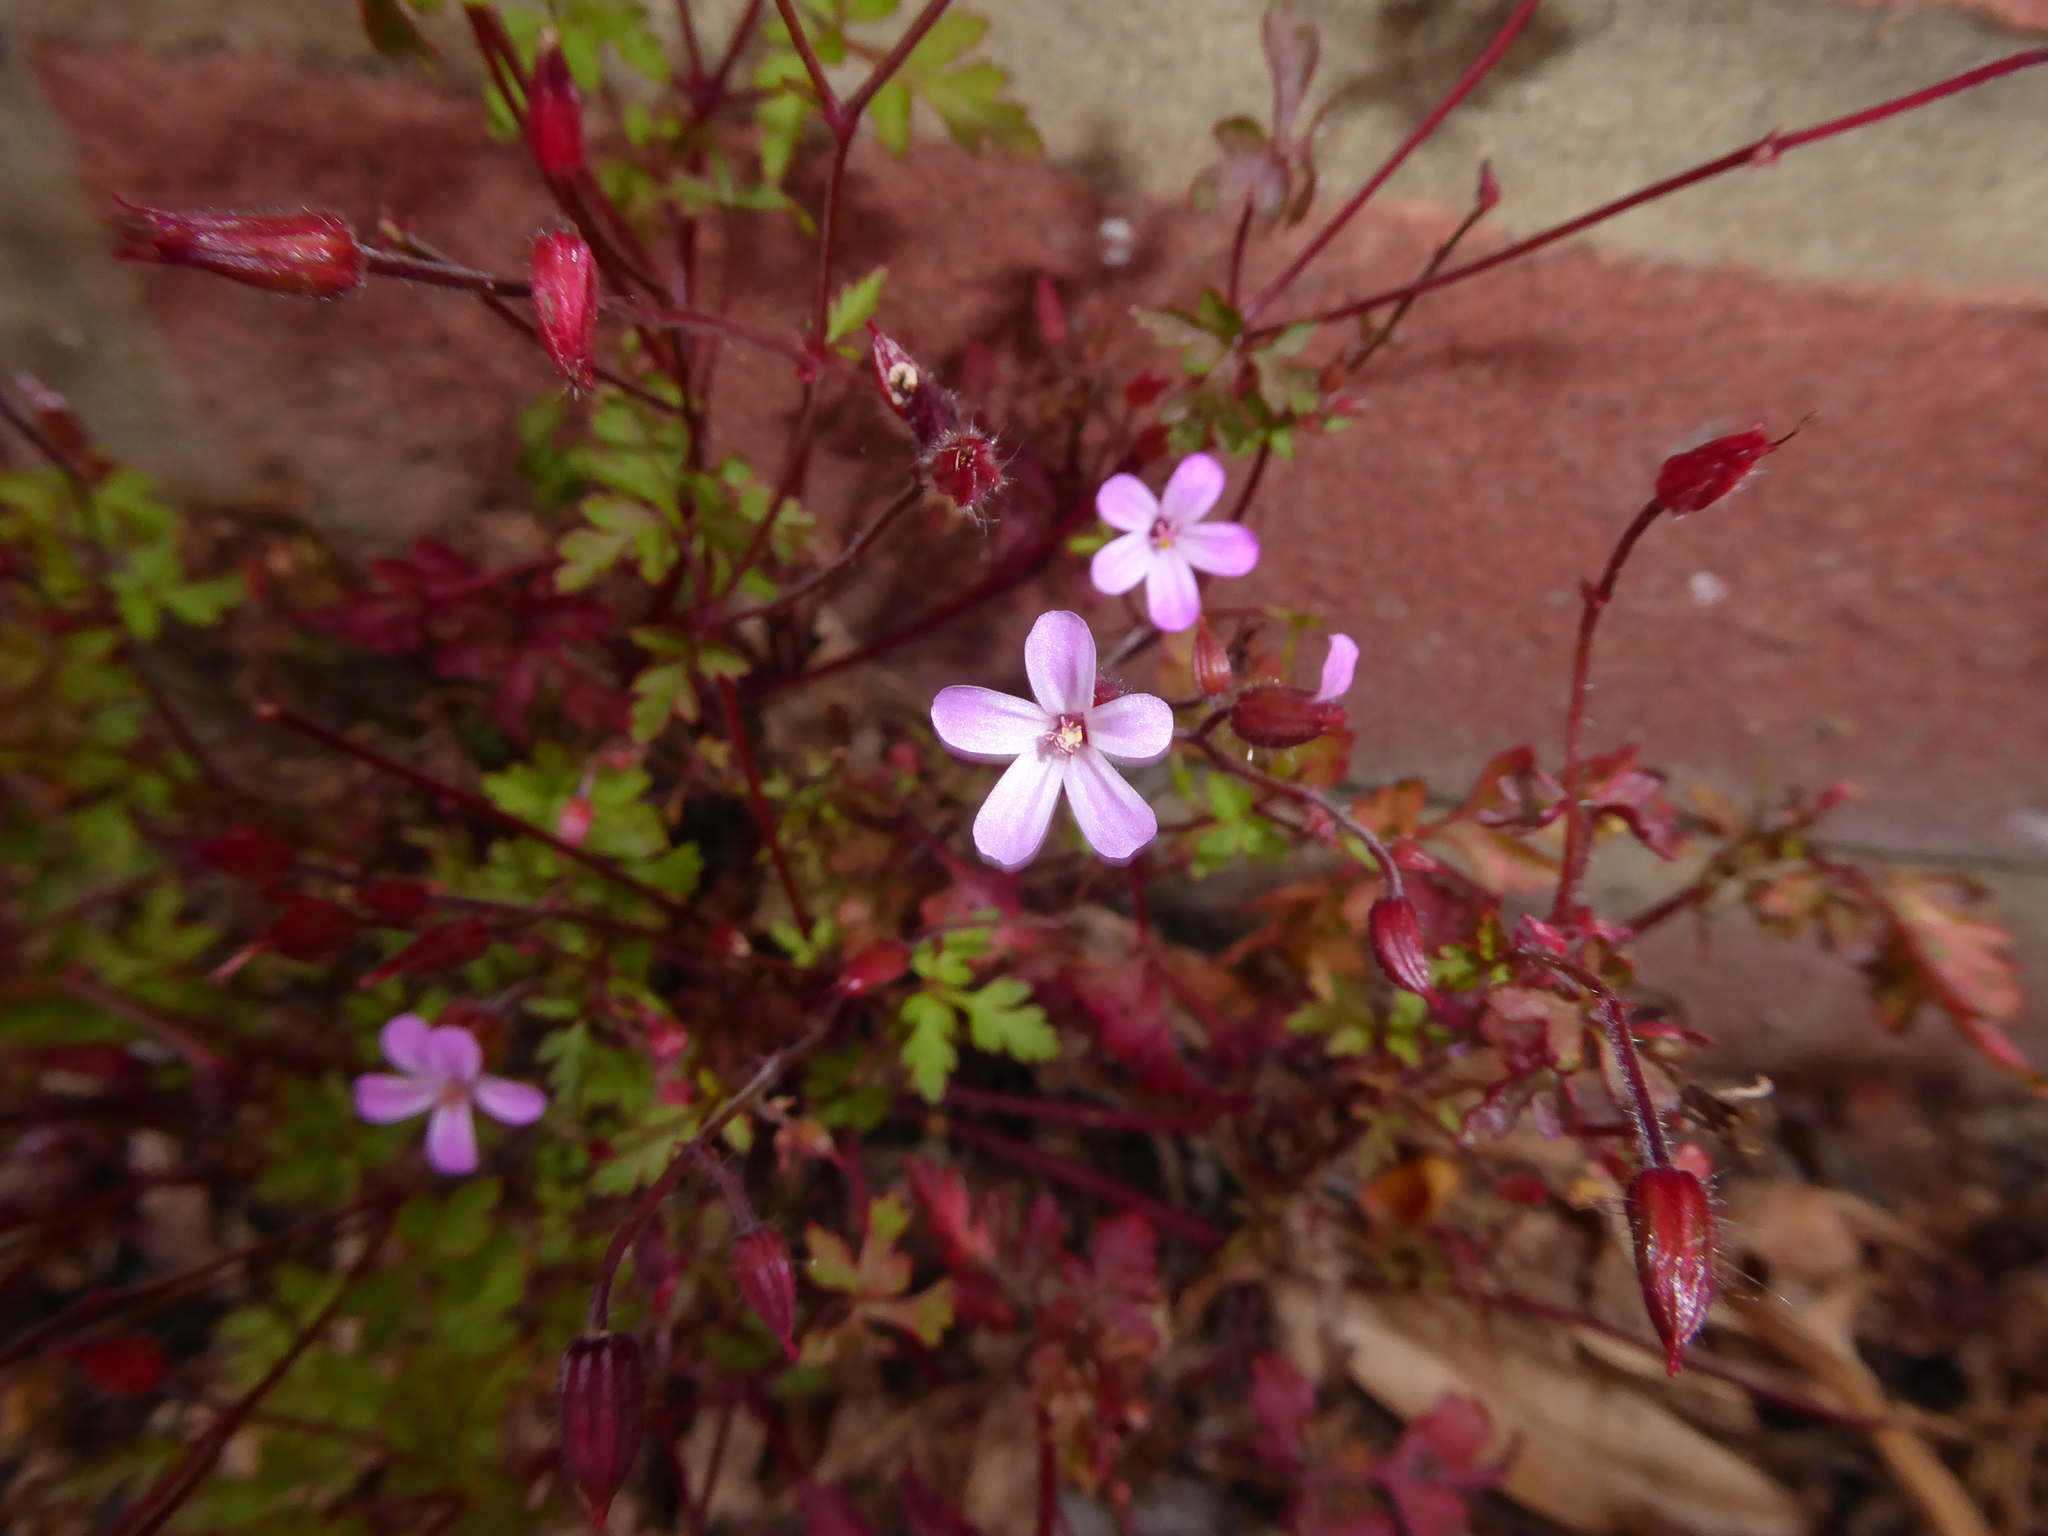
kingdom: Plantae
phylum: Tracheophyta
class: Magnoliopsida
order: Geraniales
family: Geraniaceae
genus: Geranium
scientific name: Geranium robertianum
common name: Herb-robert
